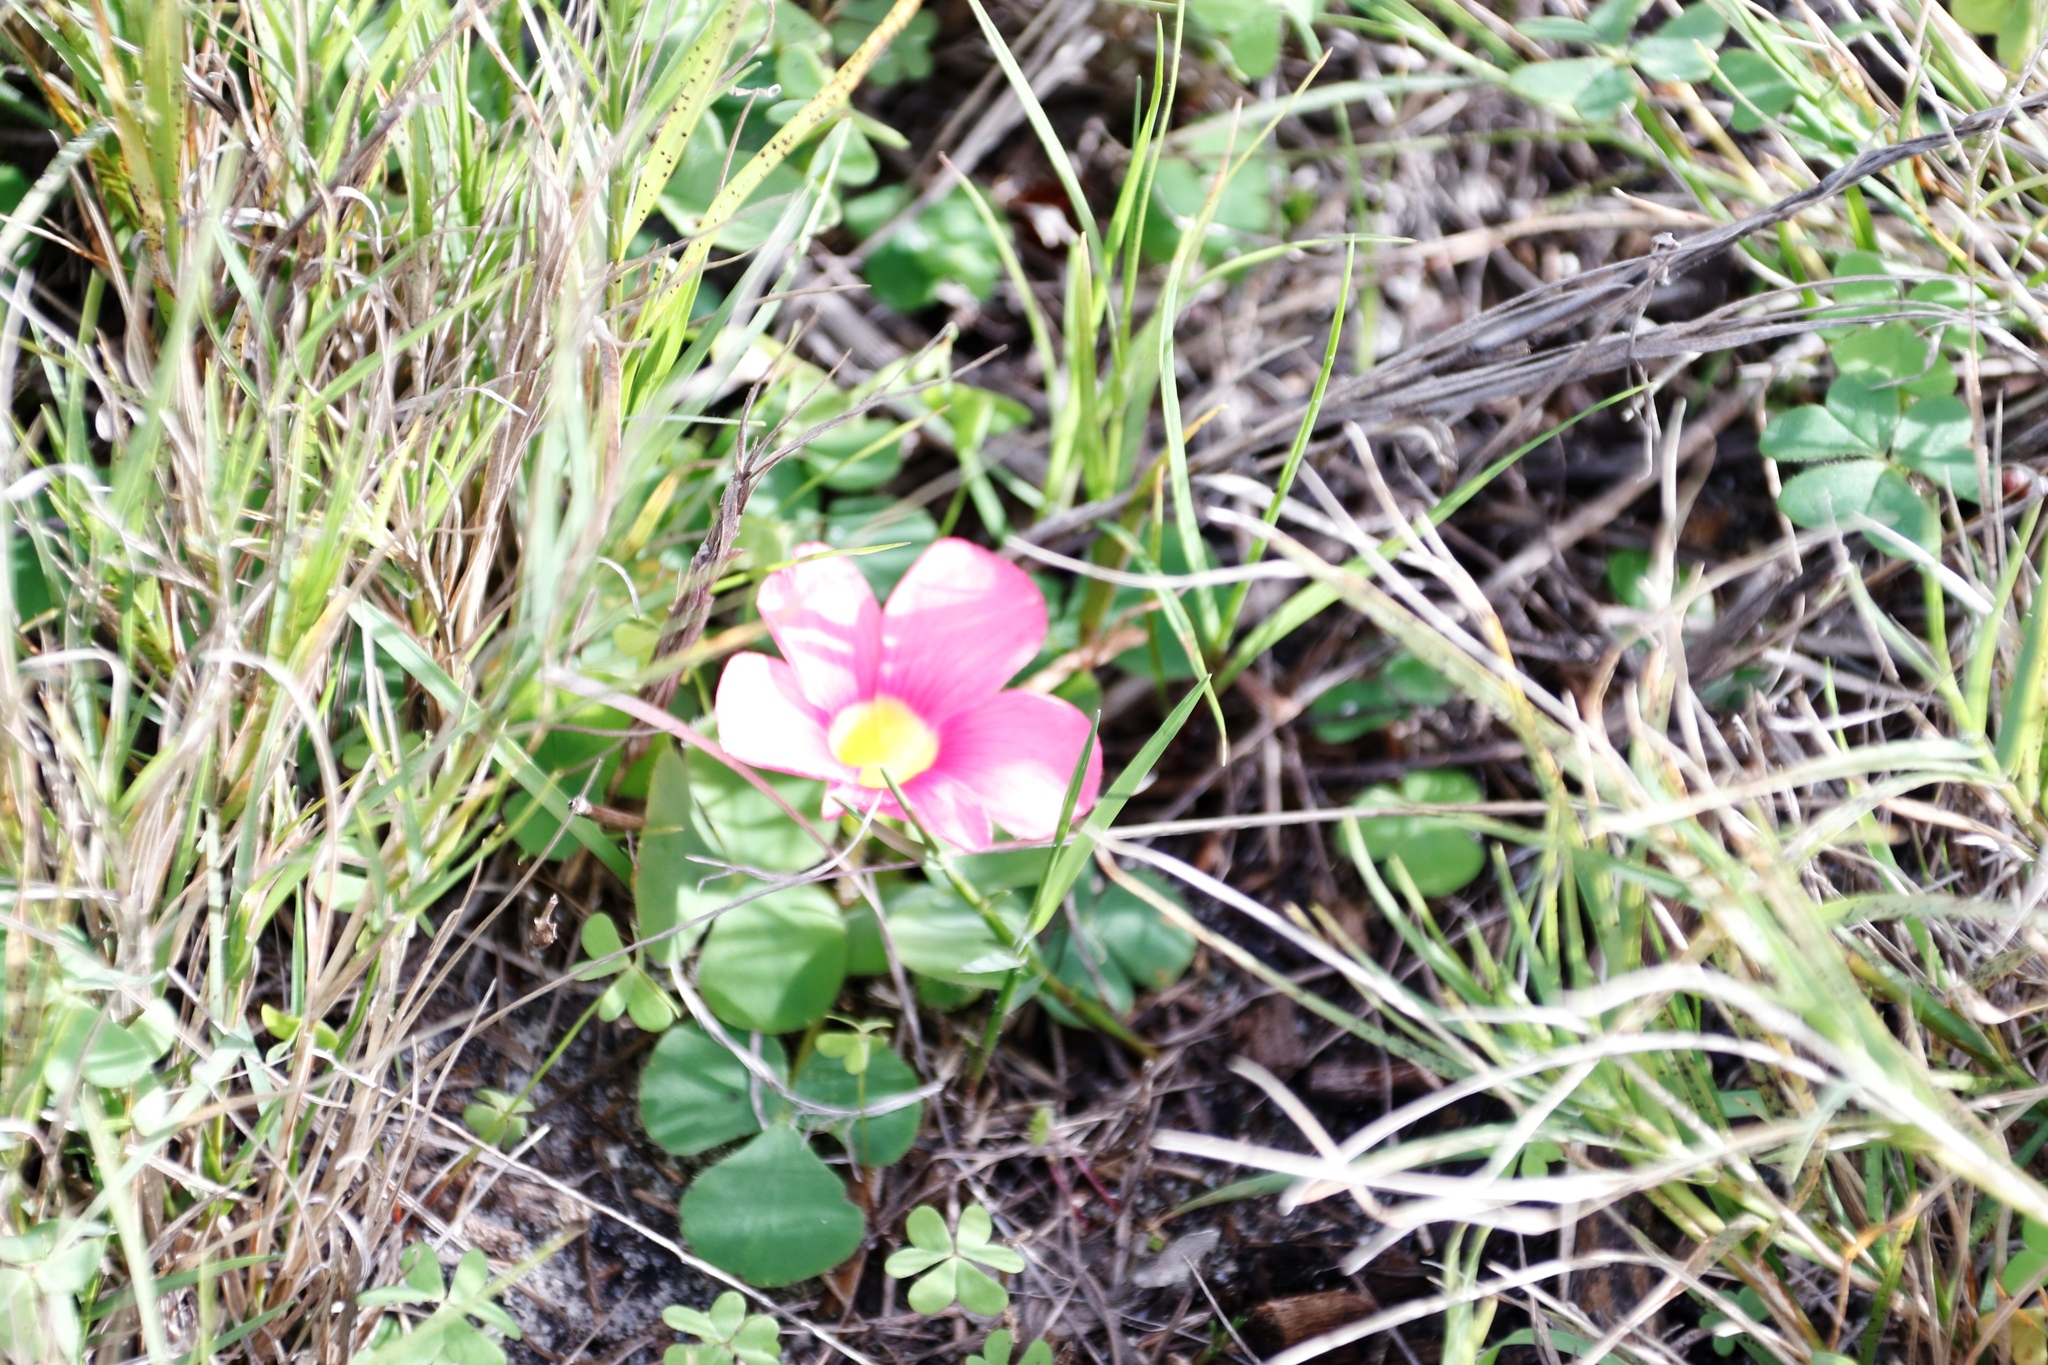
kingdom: Plantae
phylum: Tracheophyta
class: Magnoliopsida
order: Oxalidales
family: Oxalidaceae
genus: Oxalis
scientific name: Oxalis purpurea
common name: Purple woodsorrel
